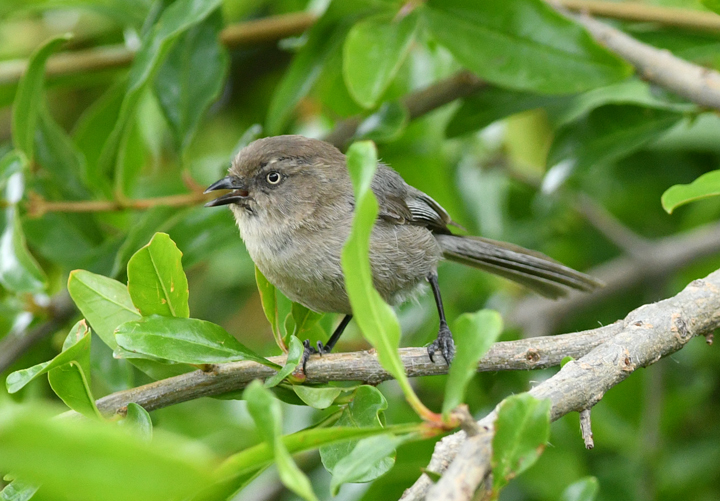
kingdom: Animalia
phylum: Chordata
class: Aves
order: Passeriformes
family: Aegithalidae
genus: Psaltriparus
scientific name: Psaltriparus minimus
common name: American bushtit
